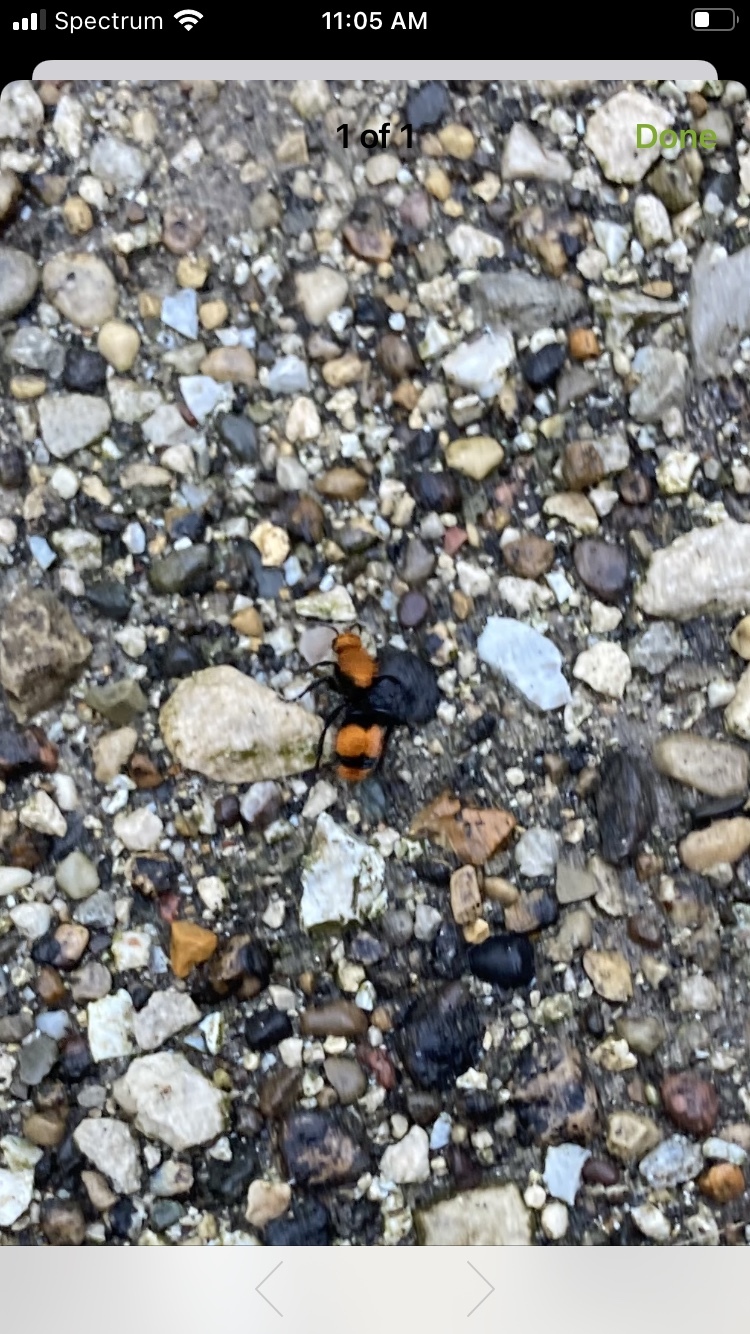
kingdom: Animalia
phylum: Arthropoda
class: Insecta
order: Hymenoptera
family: Mutillidae
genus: Dasymutilla
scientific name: Dasymutilla occidentalis
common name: Common eastern velvet ant
